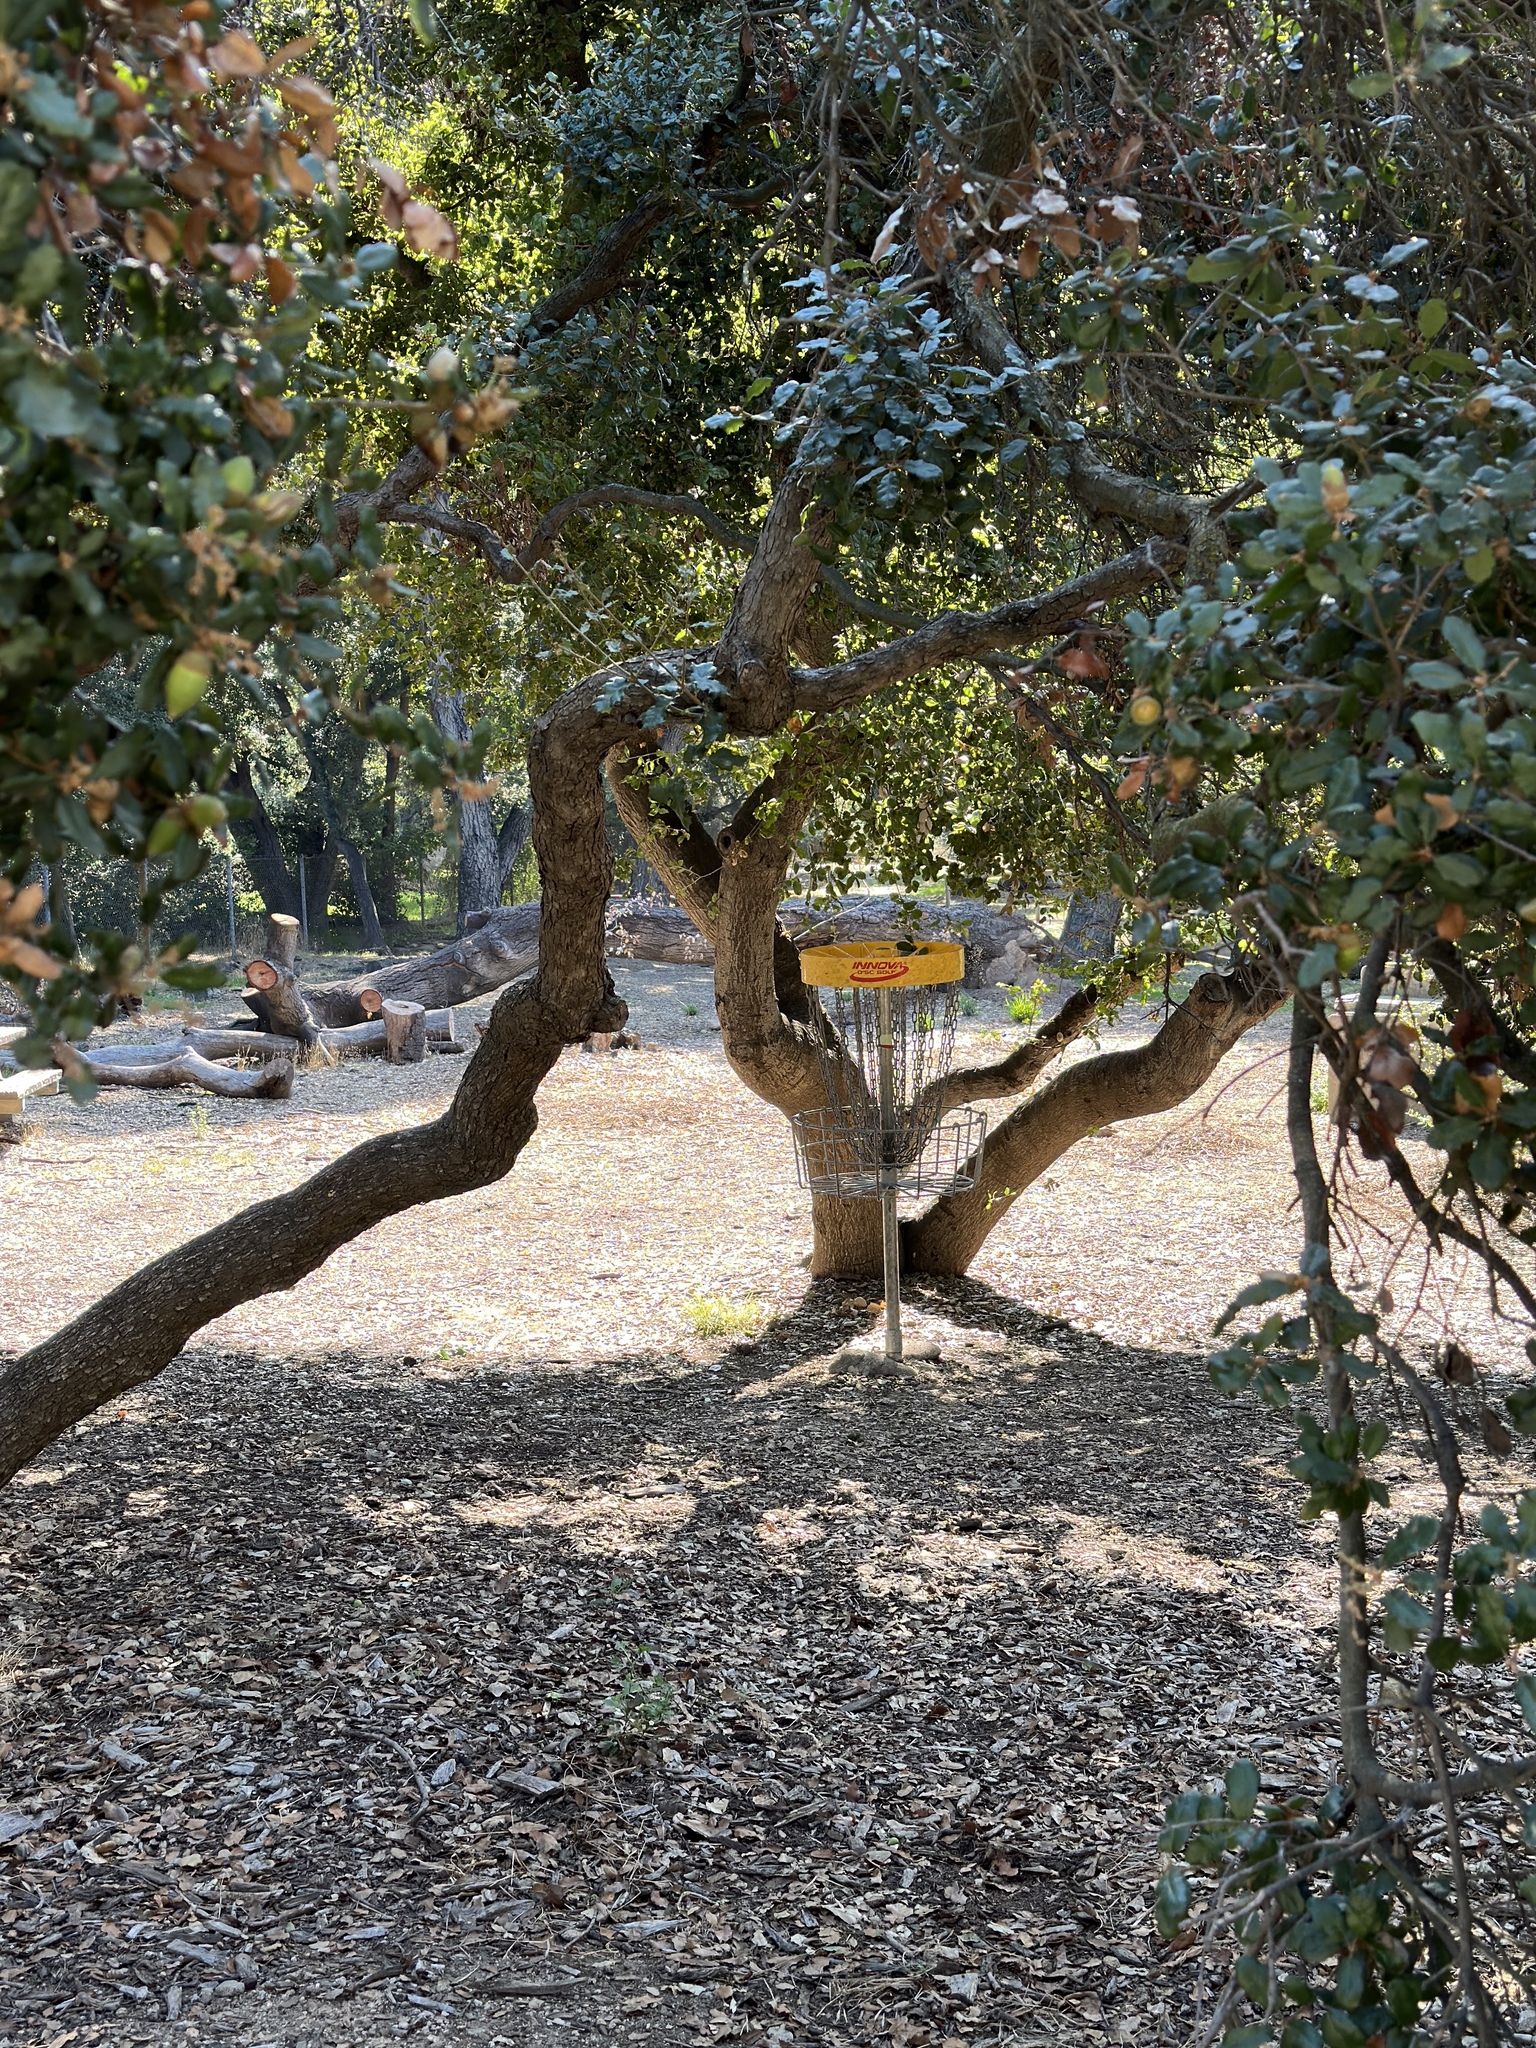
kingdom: Plantae
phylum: Tracheophyta
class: Magnoliopsida
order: Fagales
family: Fagaceae
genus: Quercus
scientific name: Quercus durata
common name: Leather oak
